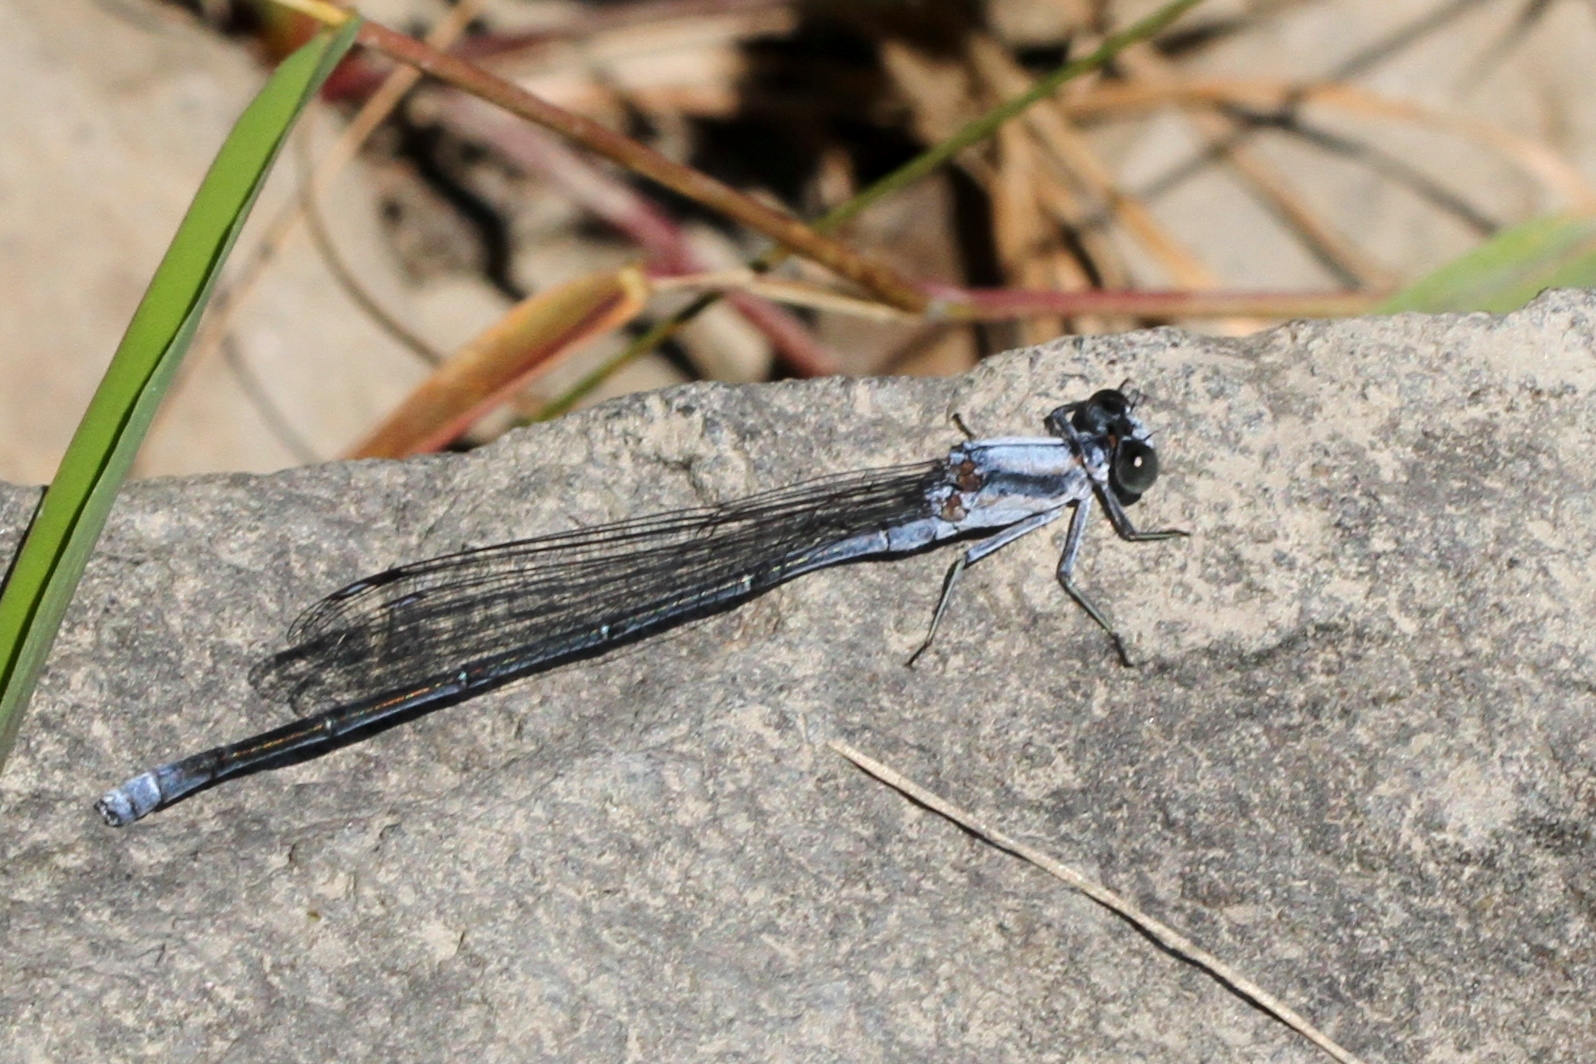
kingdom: Animalia
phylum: Arthropoda
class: Insecta
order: Odonata
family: Coenagrionidae
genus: Argia
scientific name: Argia moesta
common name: Powdered dancer
